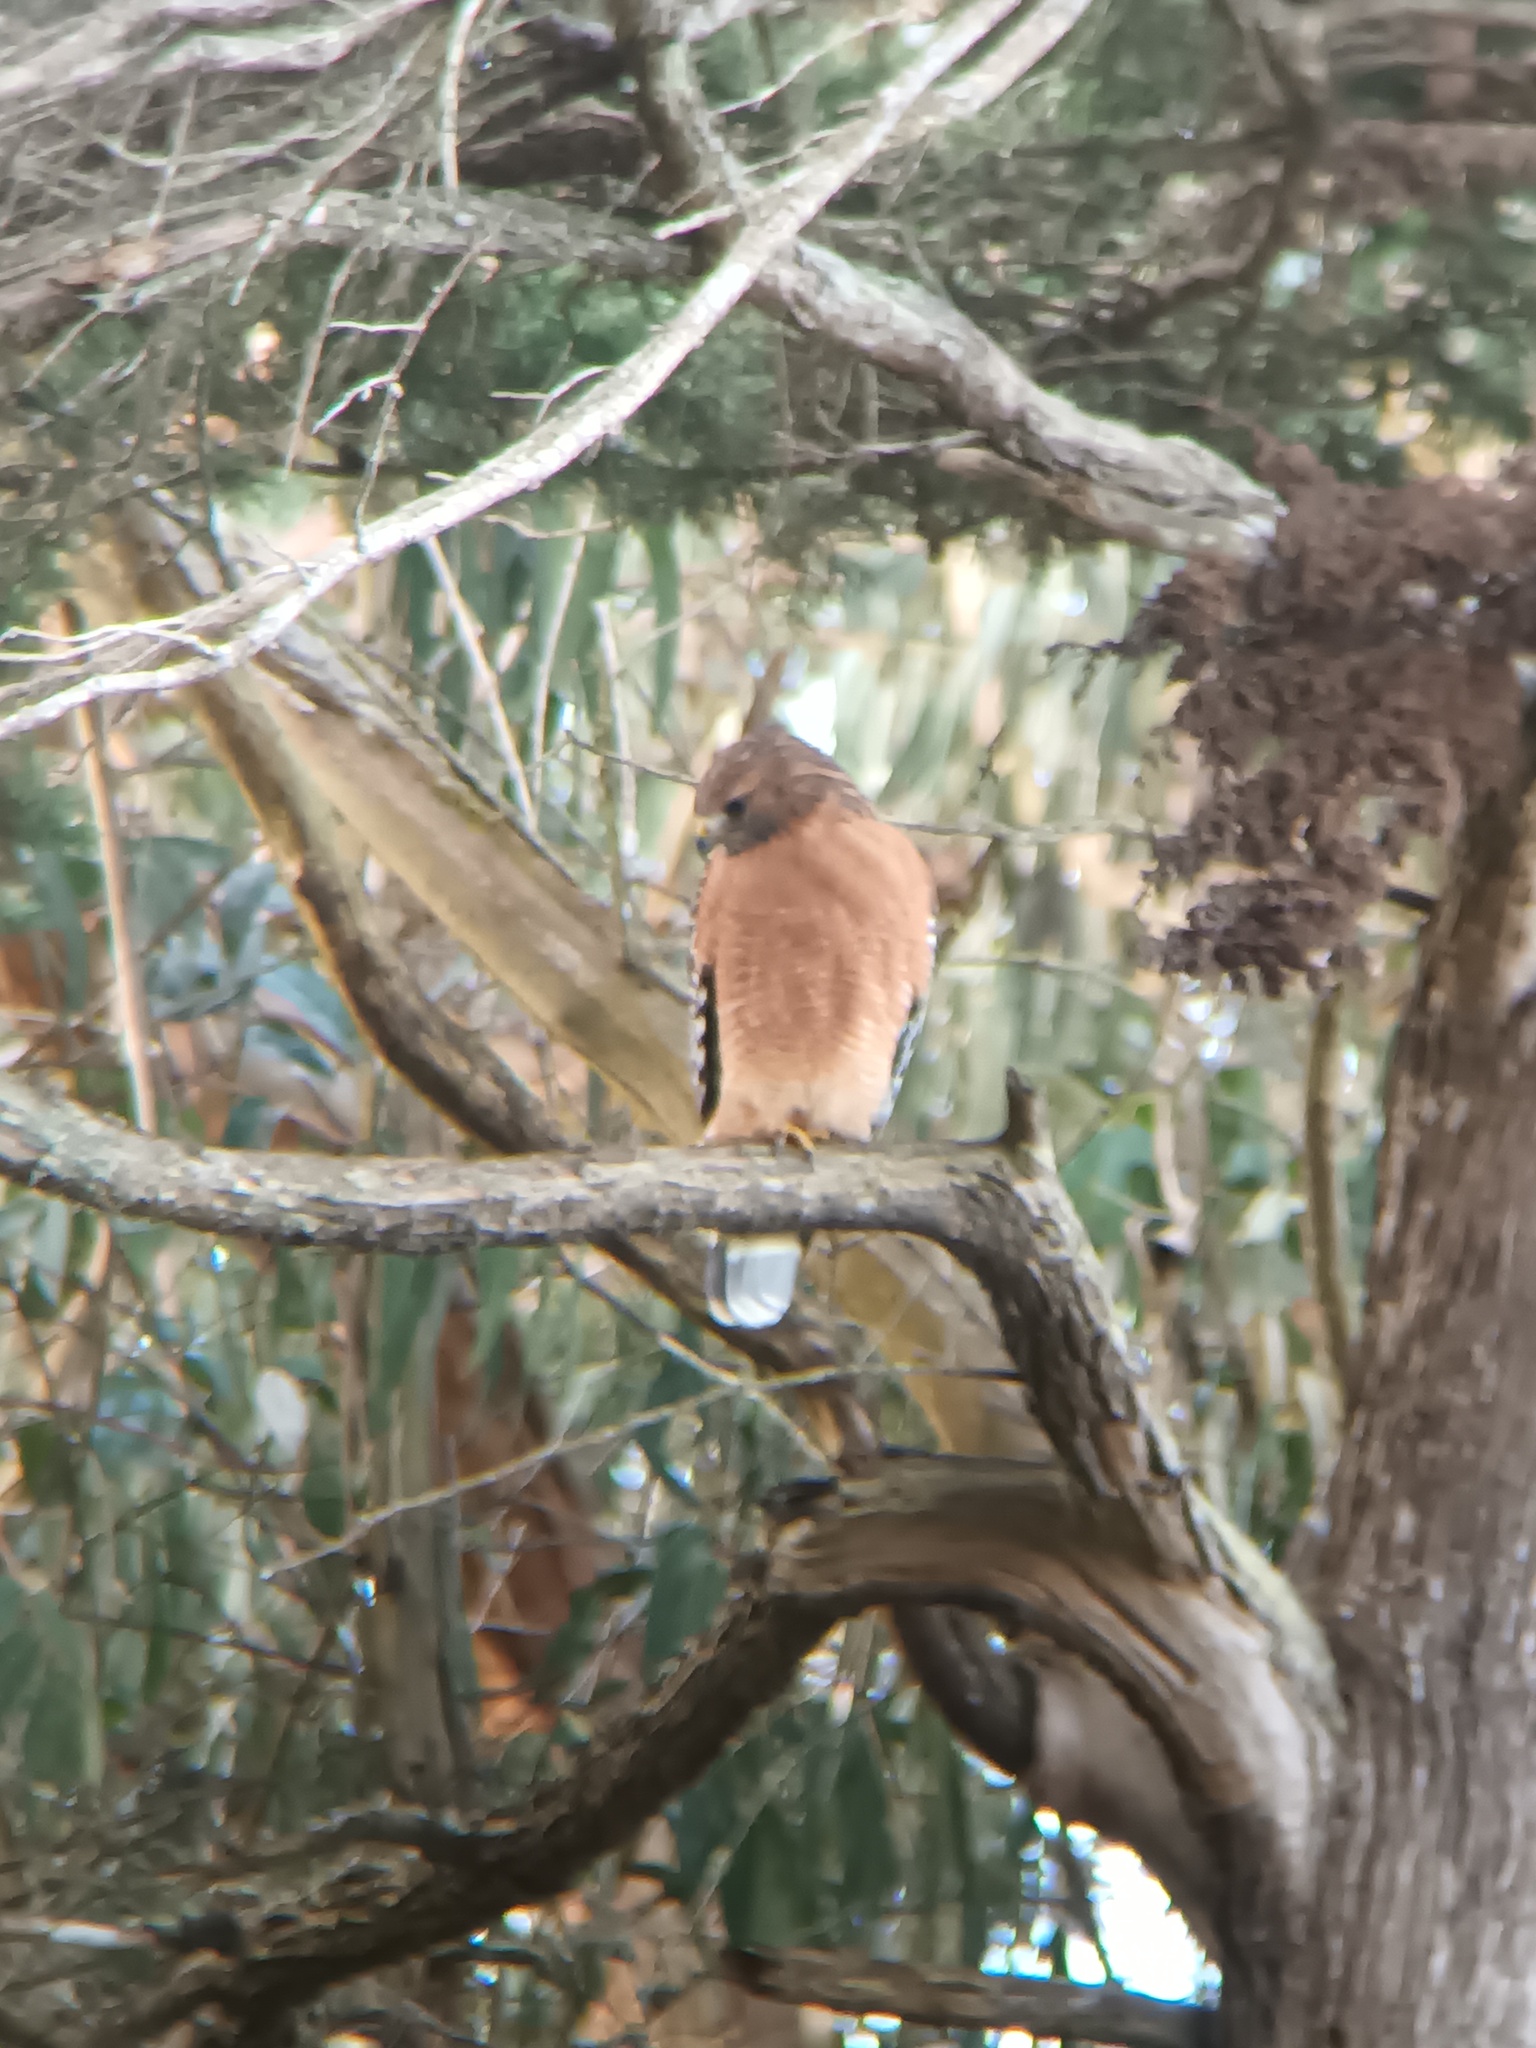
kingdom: Animalia
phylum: Chordata
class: Aves
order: Accipitriformes
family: Accipitridae
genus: Buteo
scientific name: Buteo lineatus
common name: Red-shouldered hawk
